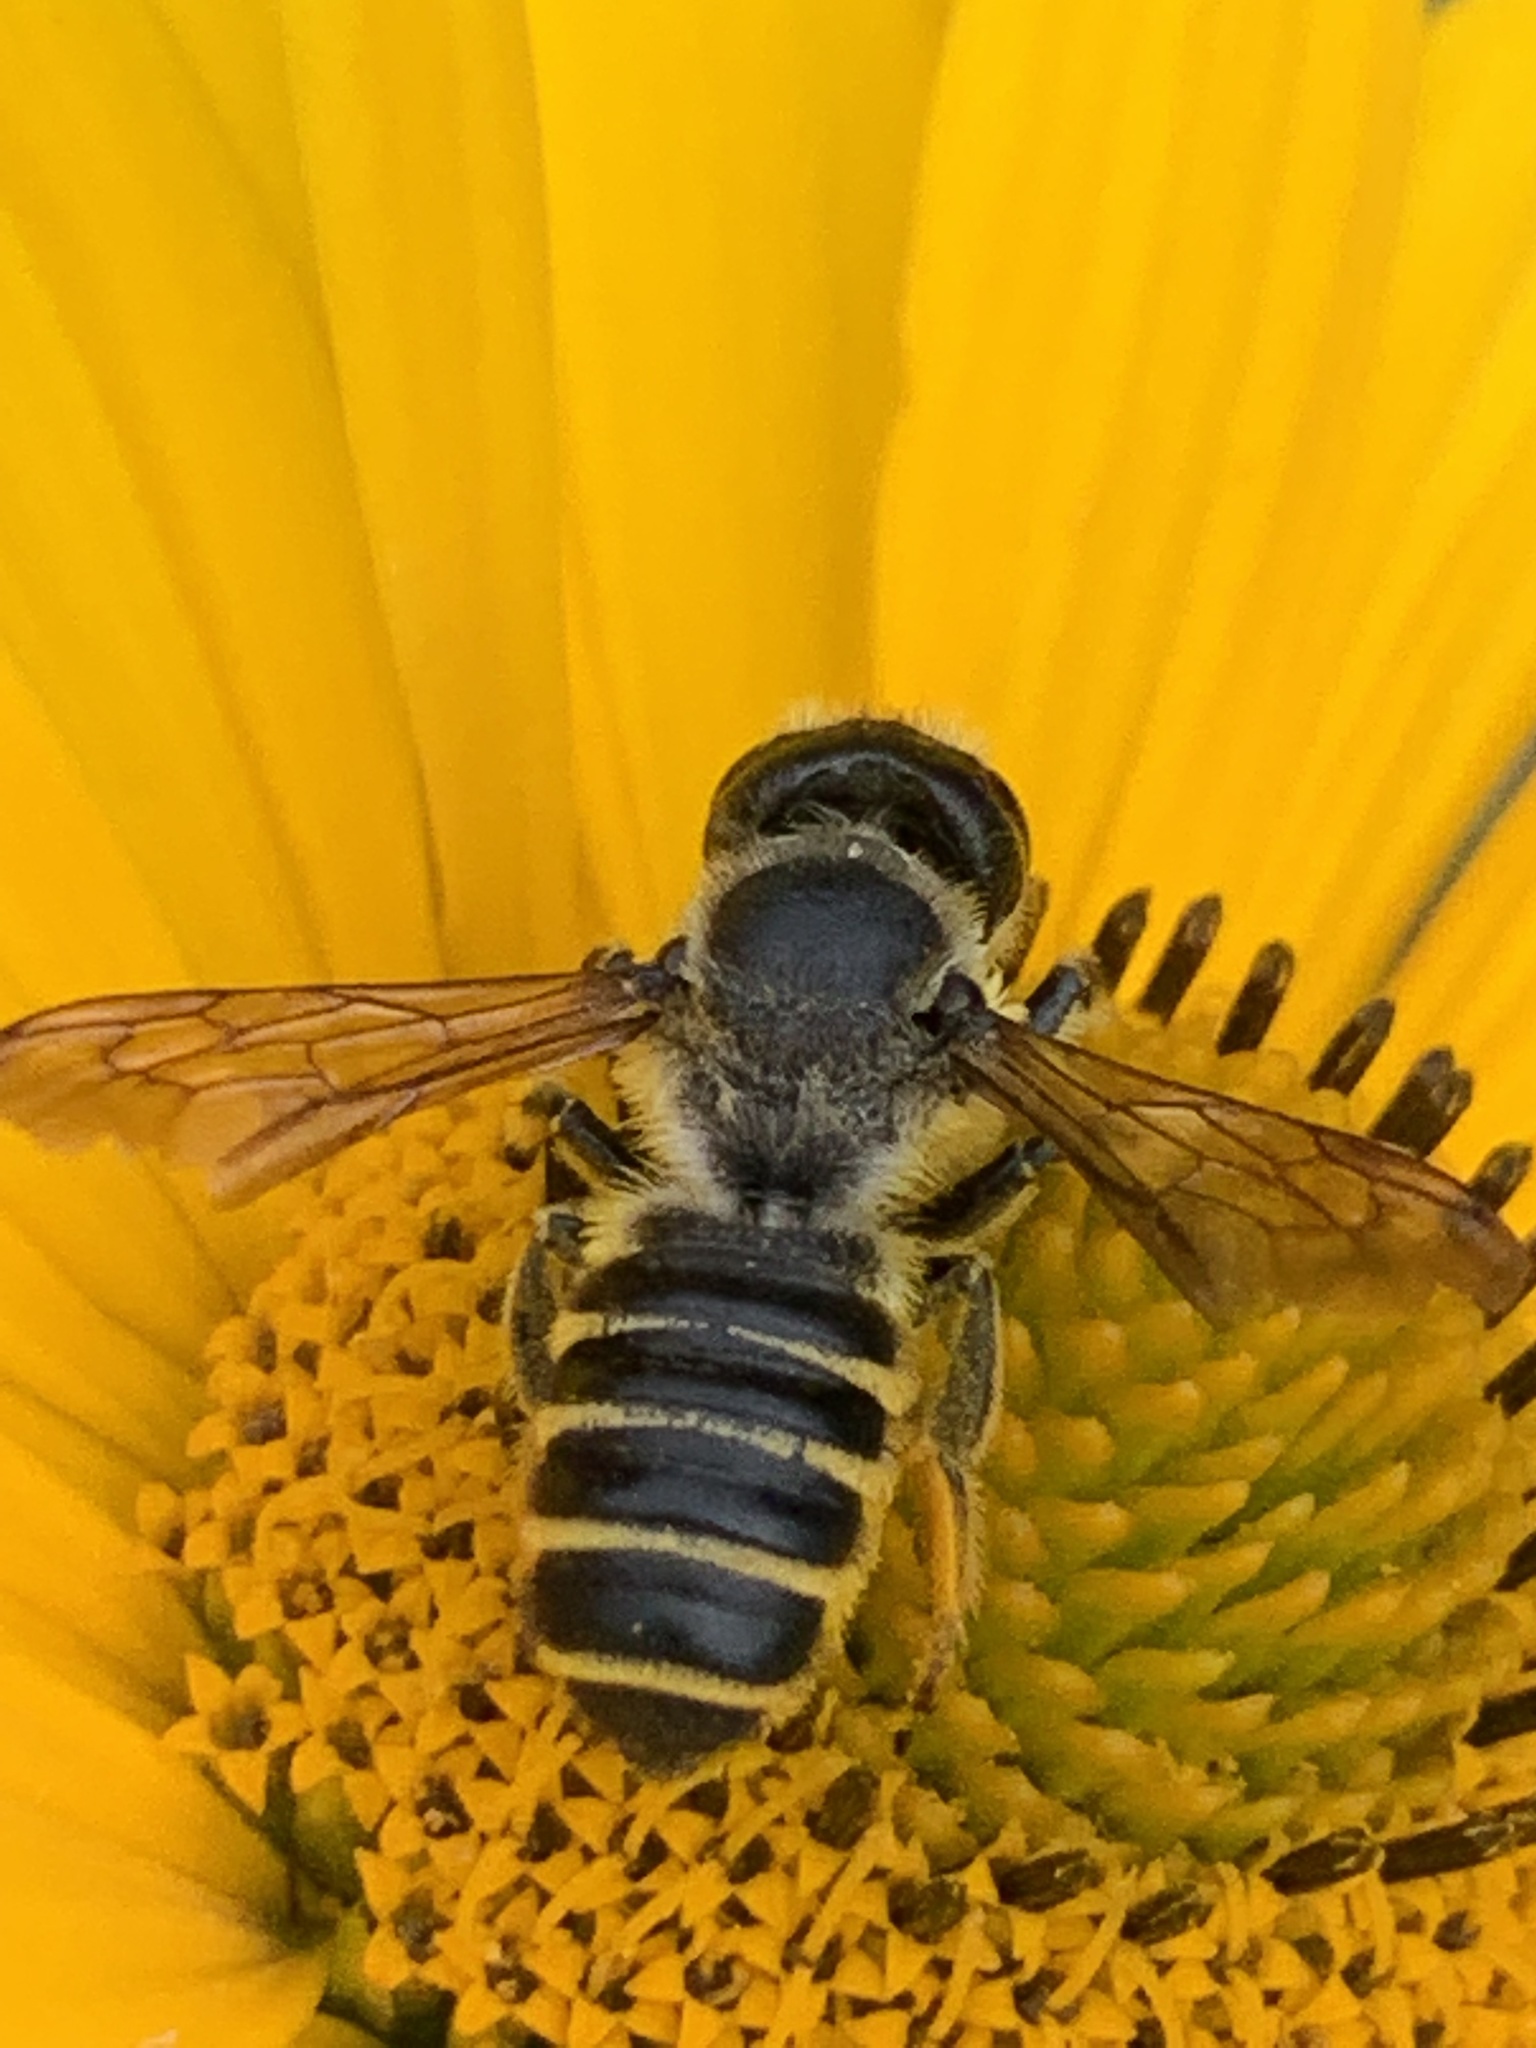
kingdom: Animalia
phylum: Arthropoda
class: Insecta
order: Hymenoptera
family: Megachilidae
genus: Megachile
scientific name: Megachile pugnata
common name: Pugnacious leafcutter bee
